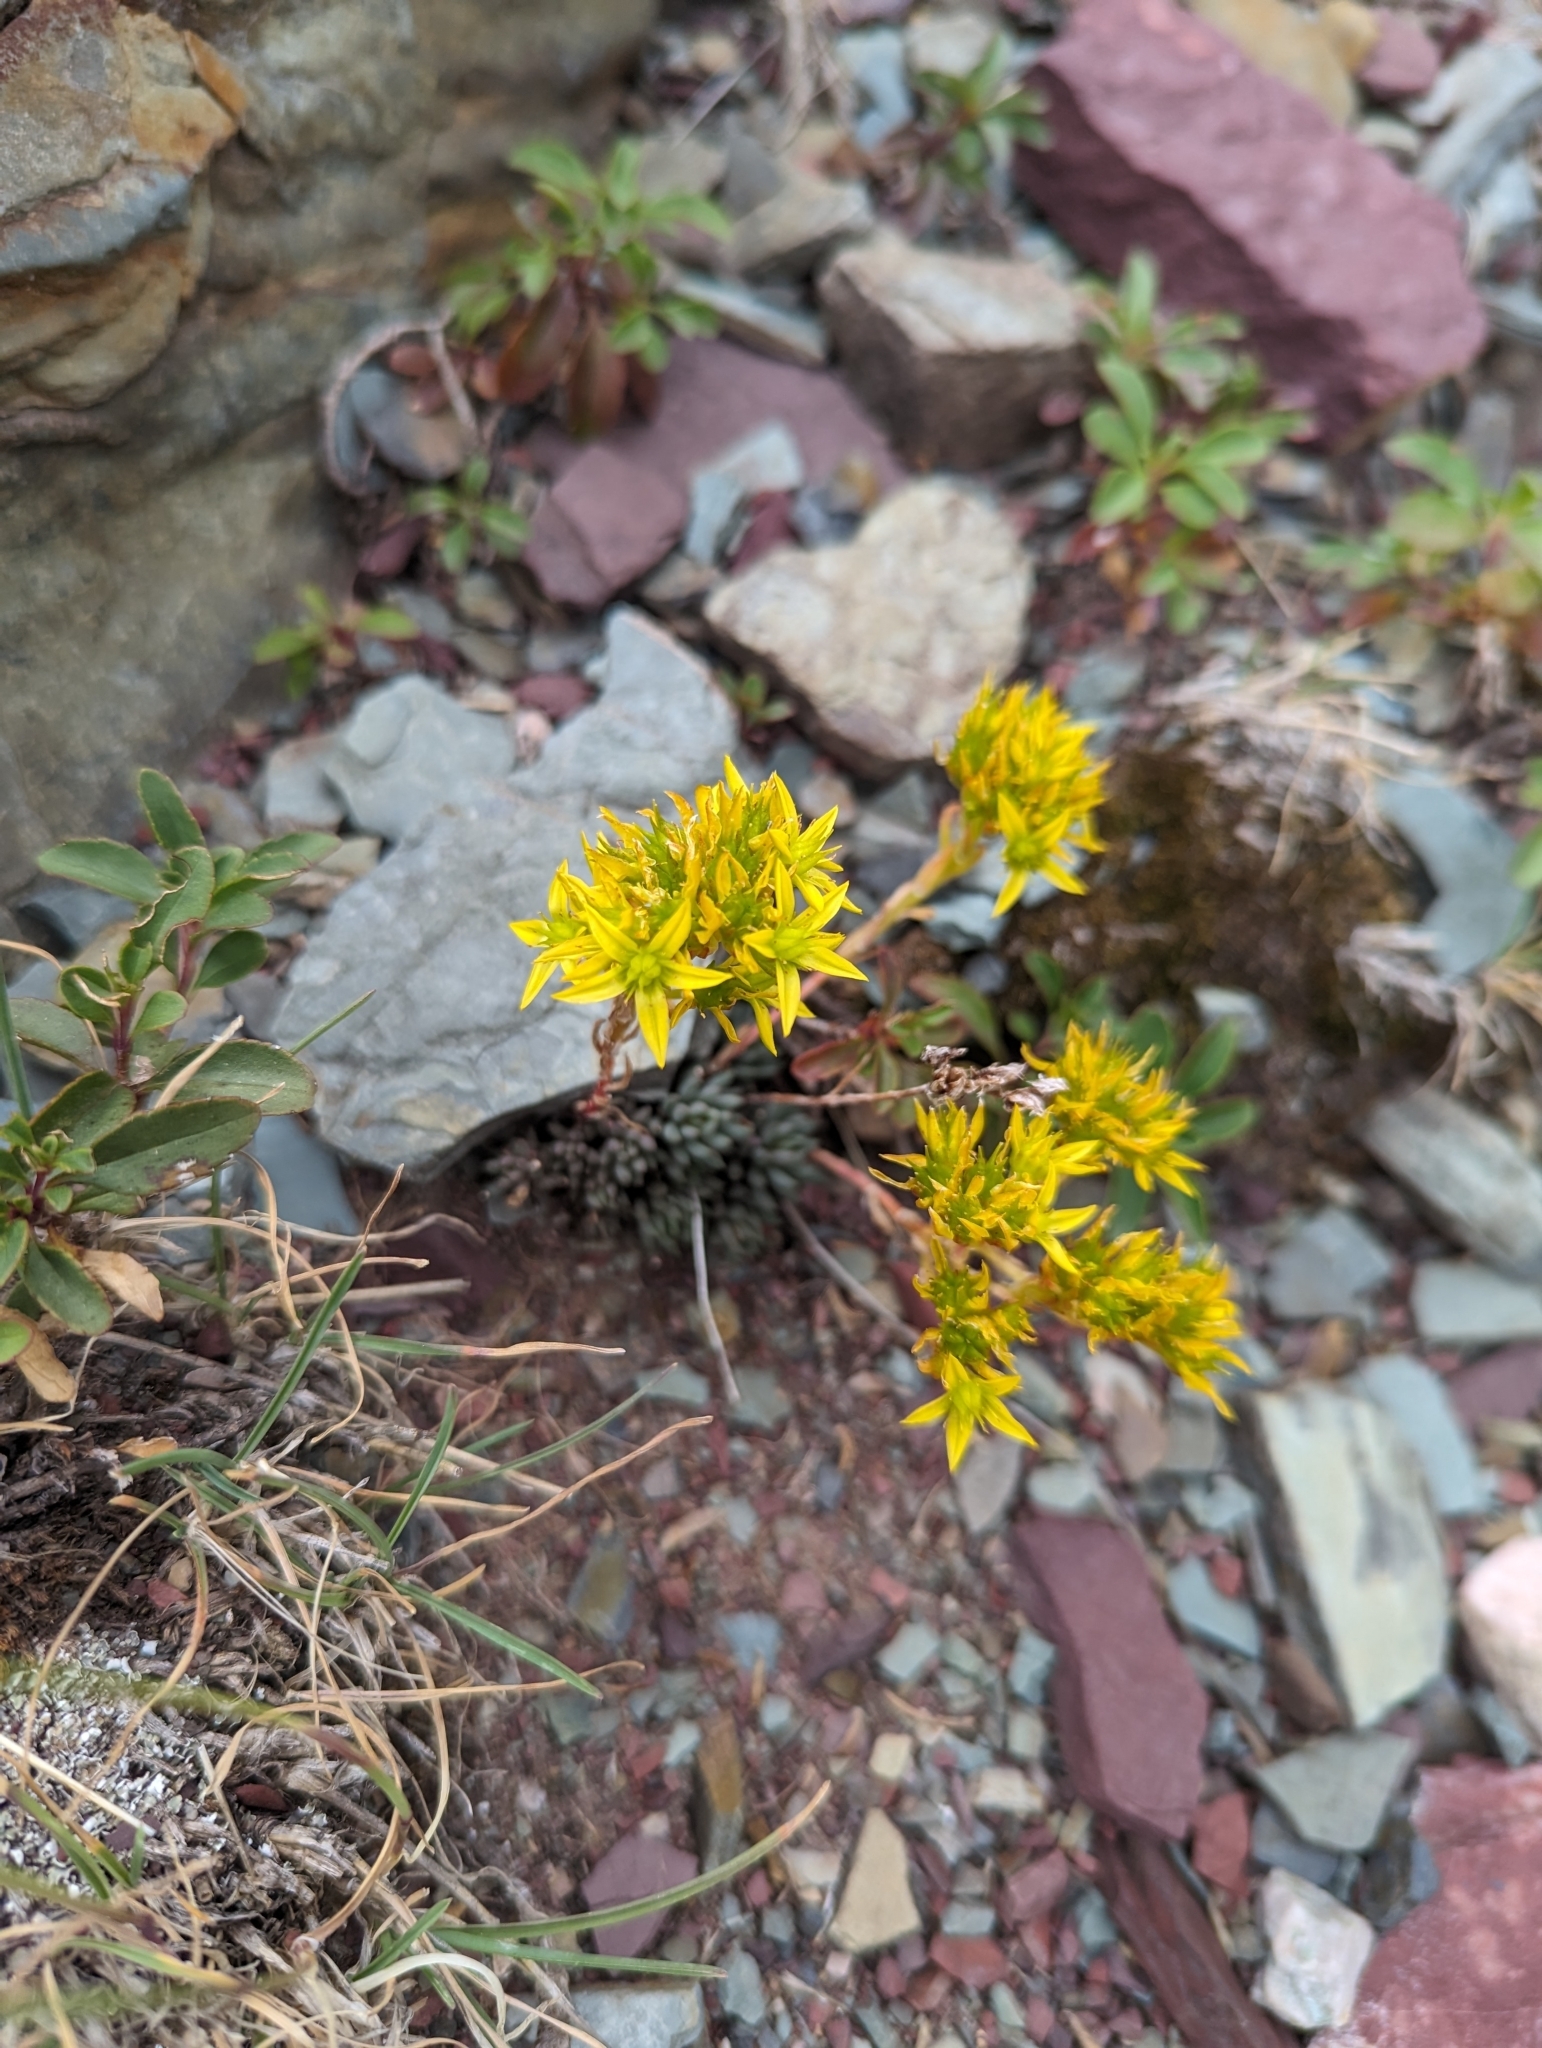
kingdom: Plantae
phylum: Tracheophyta
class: Magnoliopsida
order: Saxifragales
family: Crassulaceae
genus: Sedum
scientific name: Sedum lanceolatum
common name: Common stonecrop
